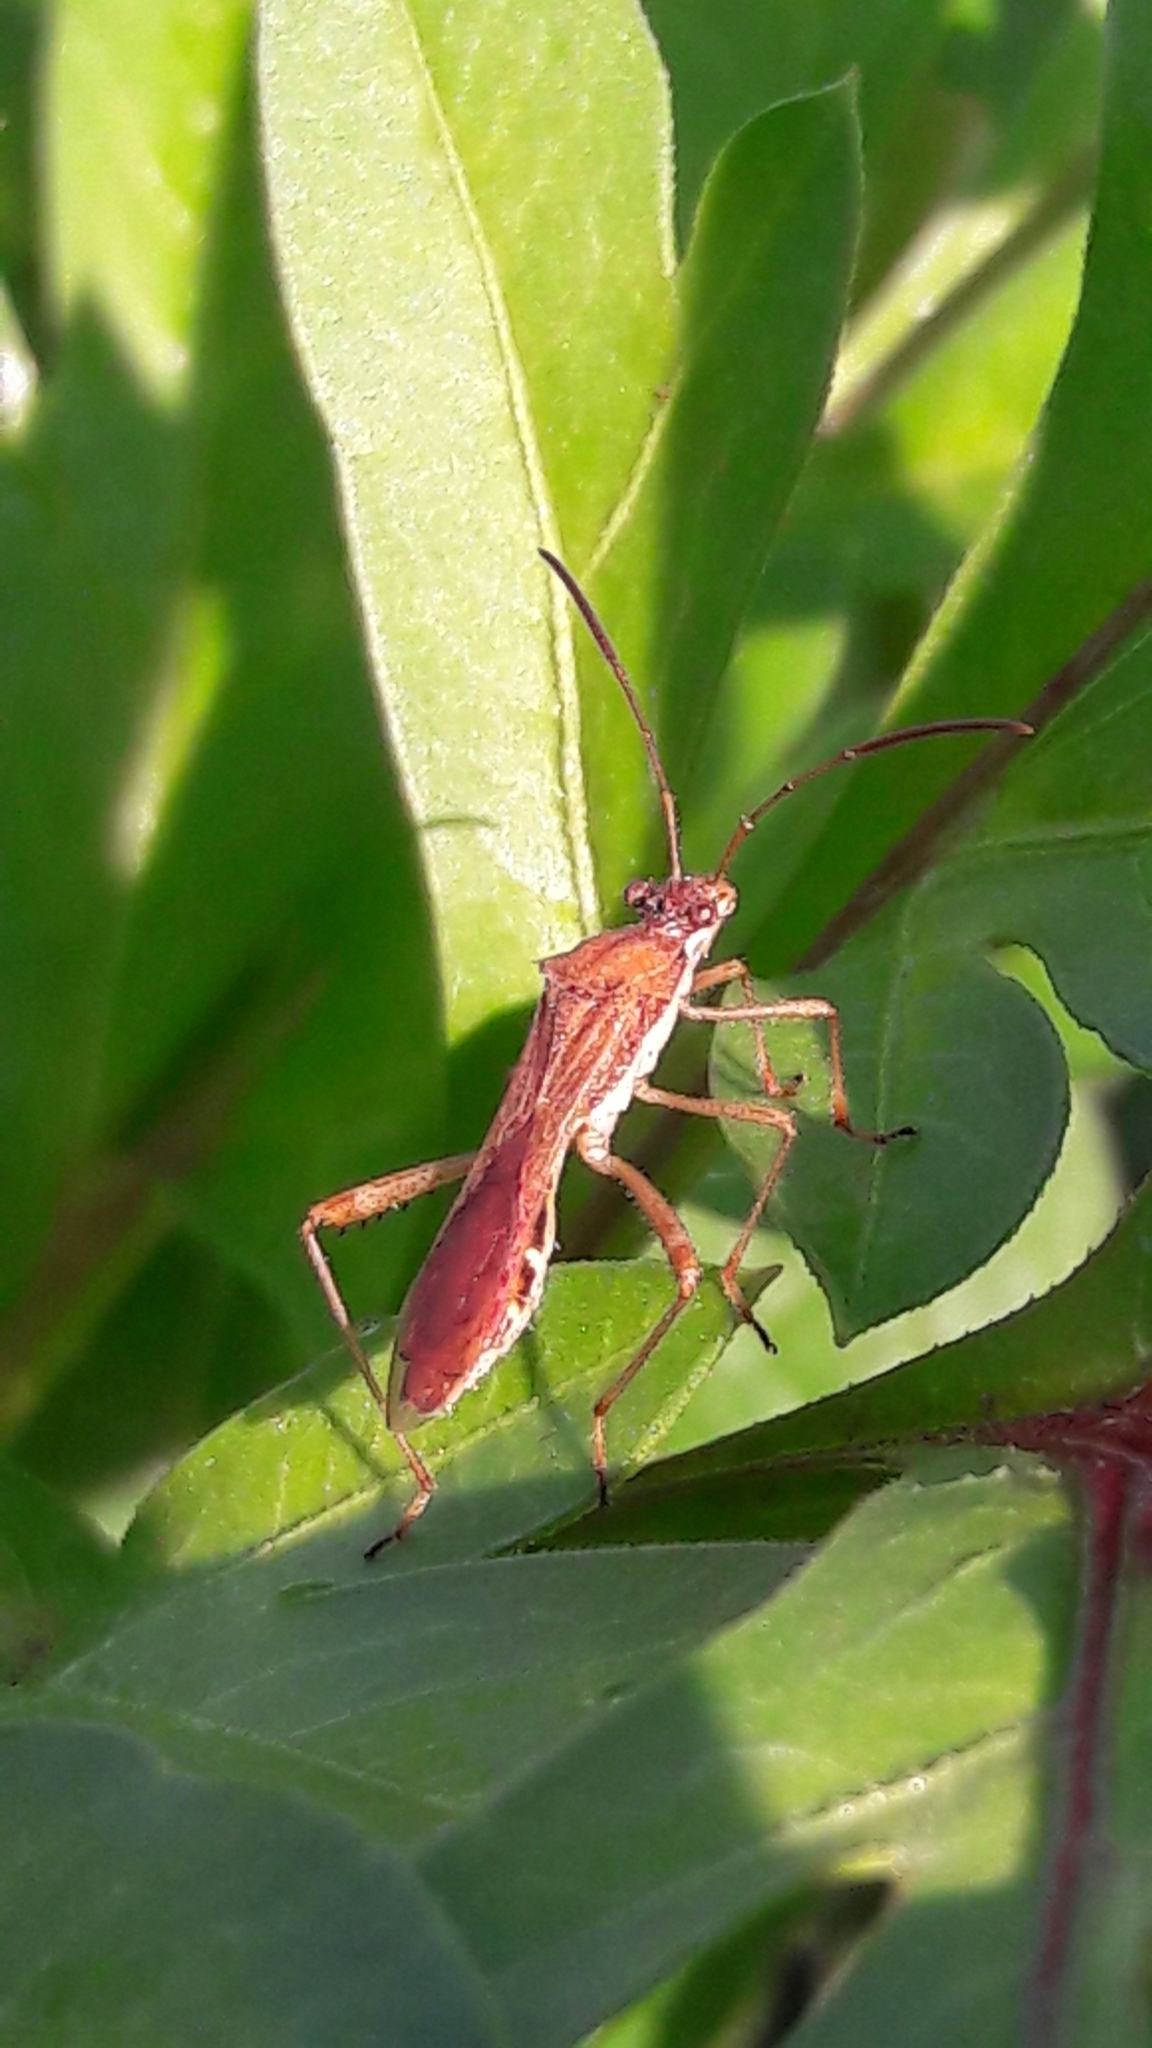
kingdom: Animalia
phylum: Arthropoda
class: Insecta
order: Hemiptera
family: Alydidae
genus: Neomegalotomus
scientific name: Neomegalotomus parvus
